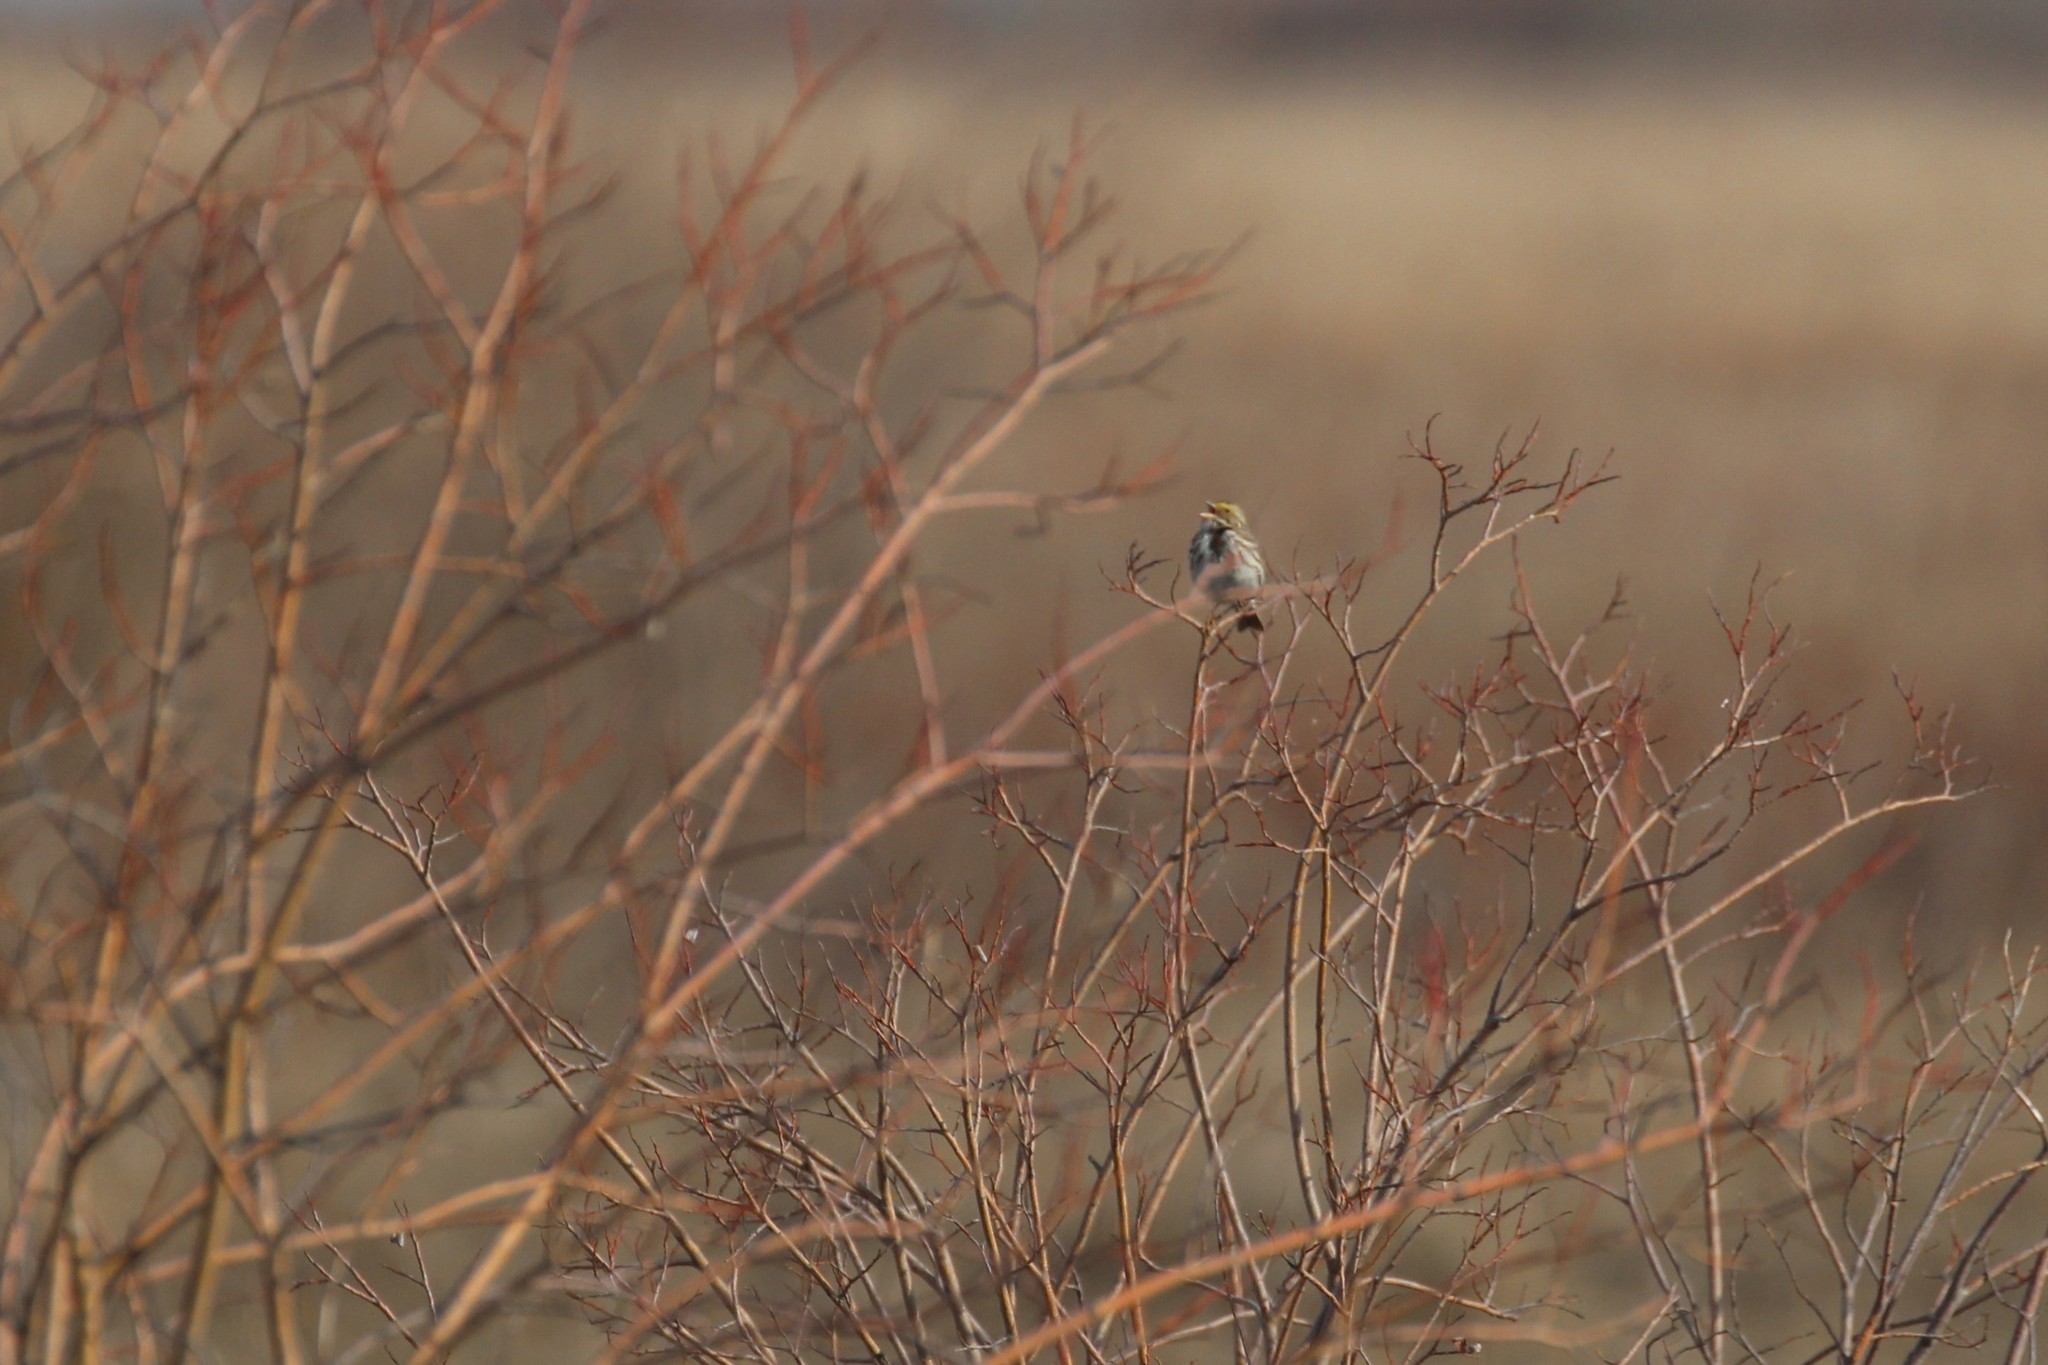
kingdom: Animalia
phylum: Chordata
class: Aves
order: Passeriformes
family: Passerellidae
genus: Passerculus
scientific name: Passerculus sandwichensis
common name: Savannah sparrow
